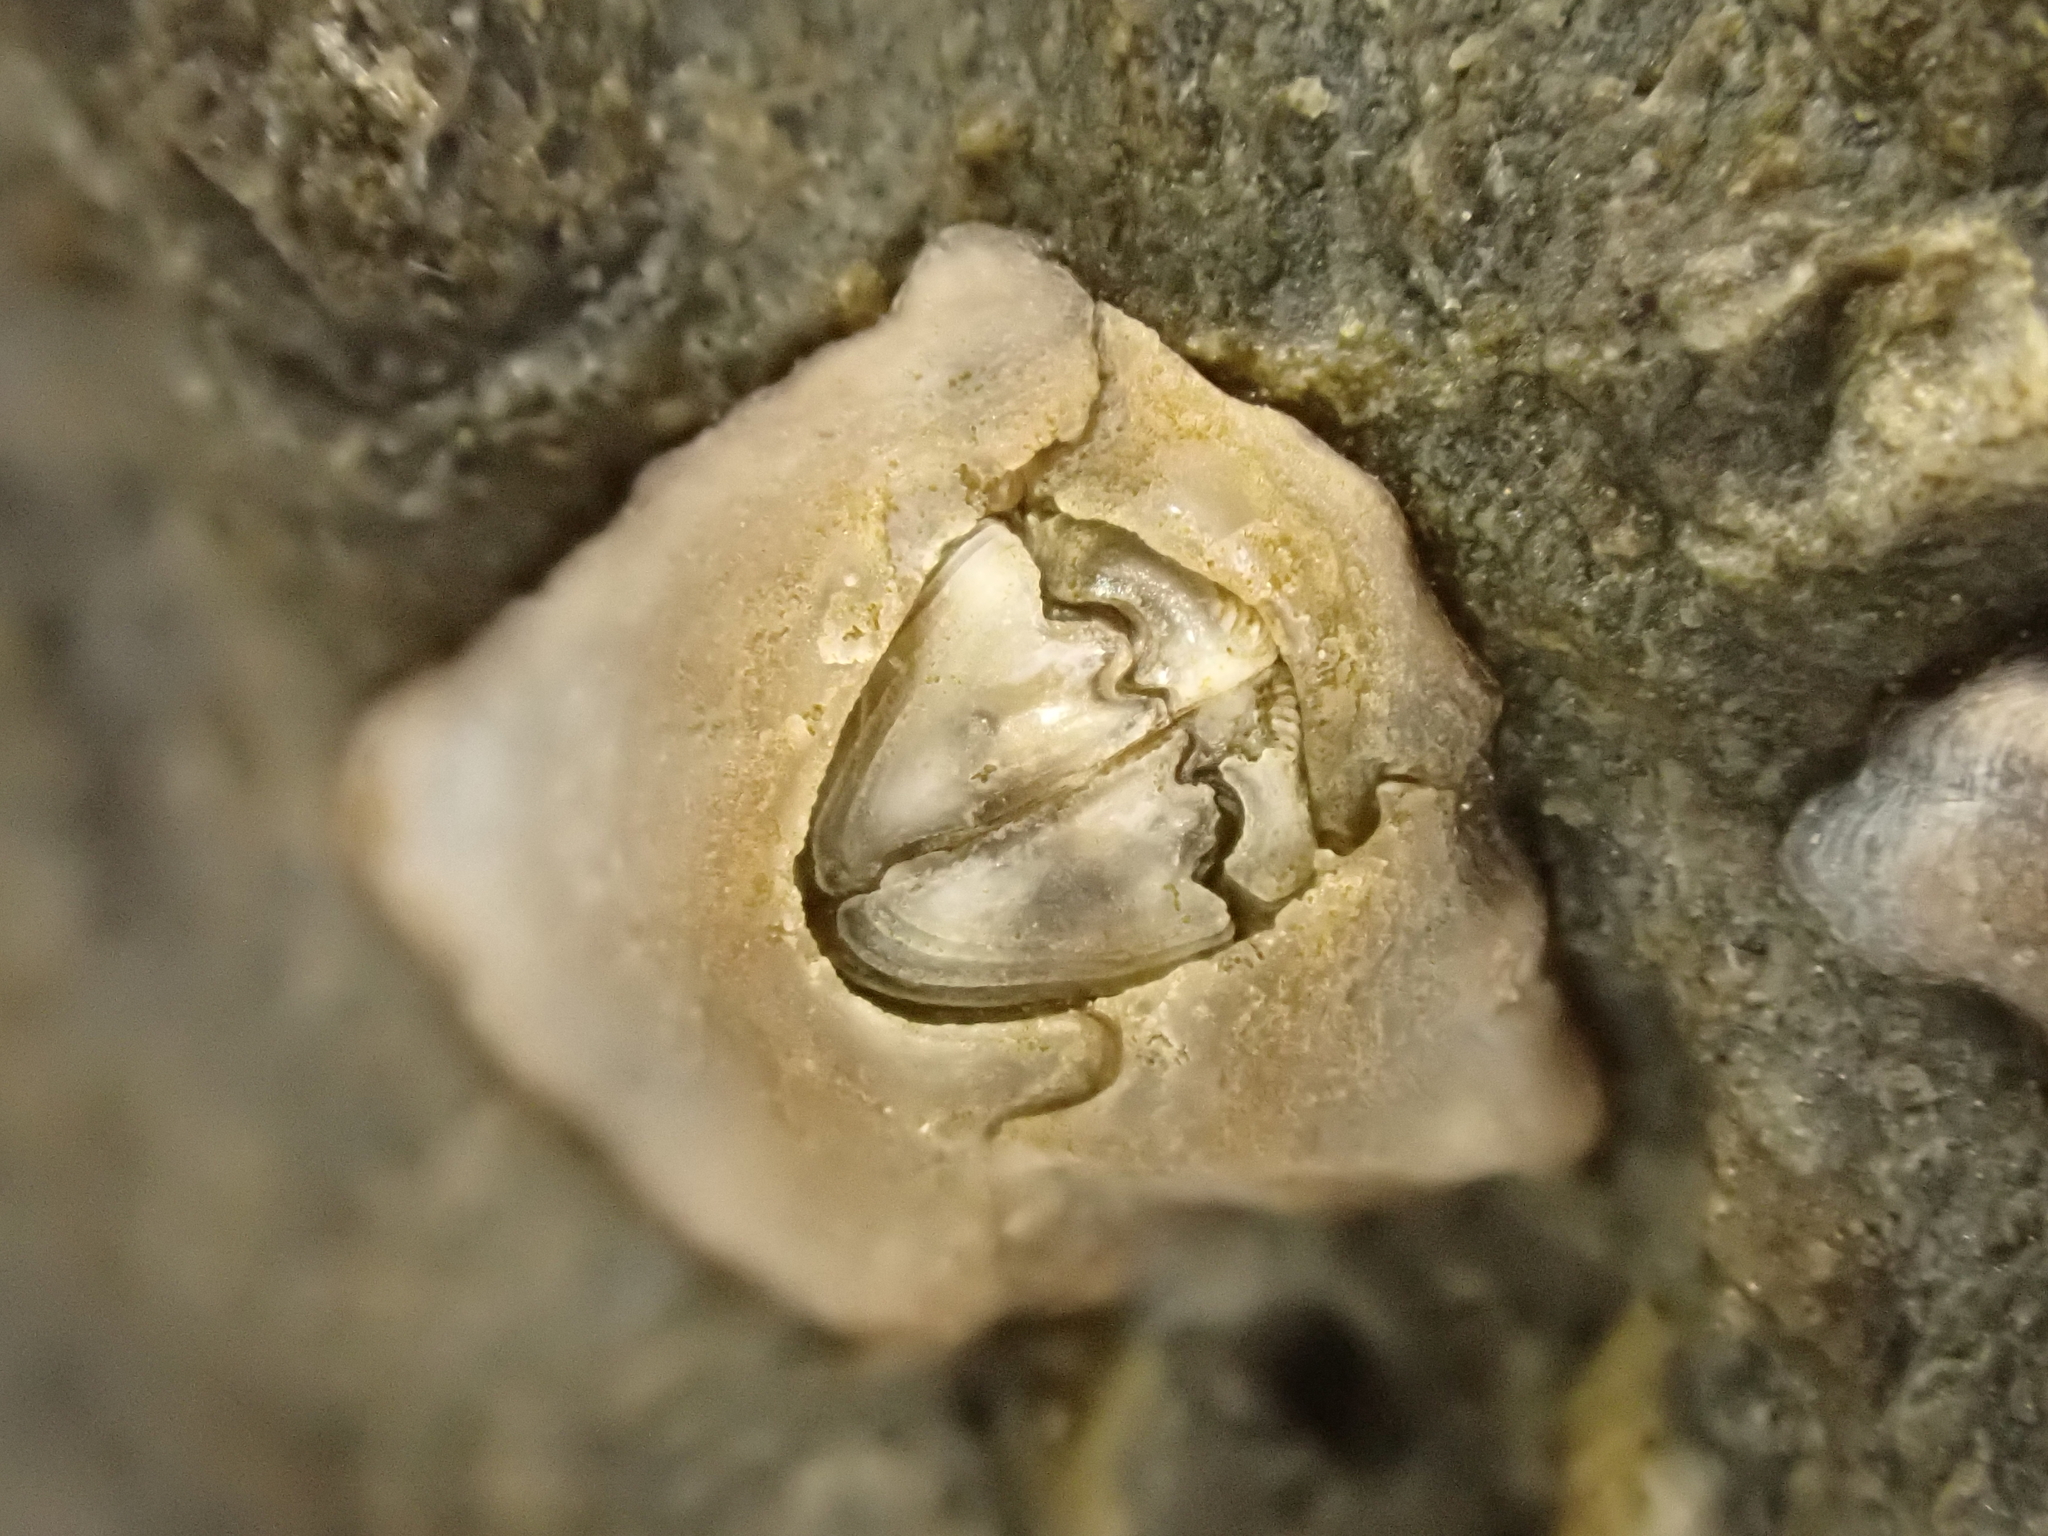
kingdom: Animalia
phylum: Arthropoda
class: Maxillopoda
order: Sessilia
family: Chthamalidae
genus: Chamaesipho
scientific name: Chamaesipho brunnea
